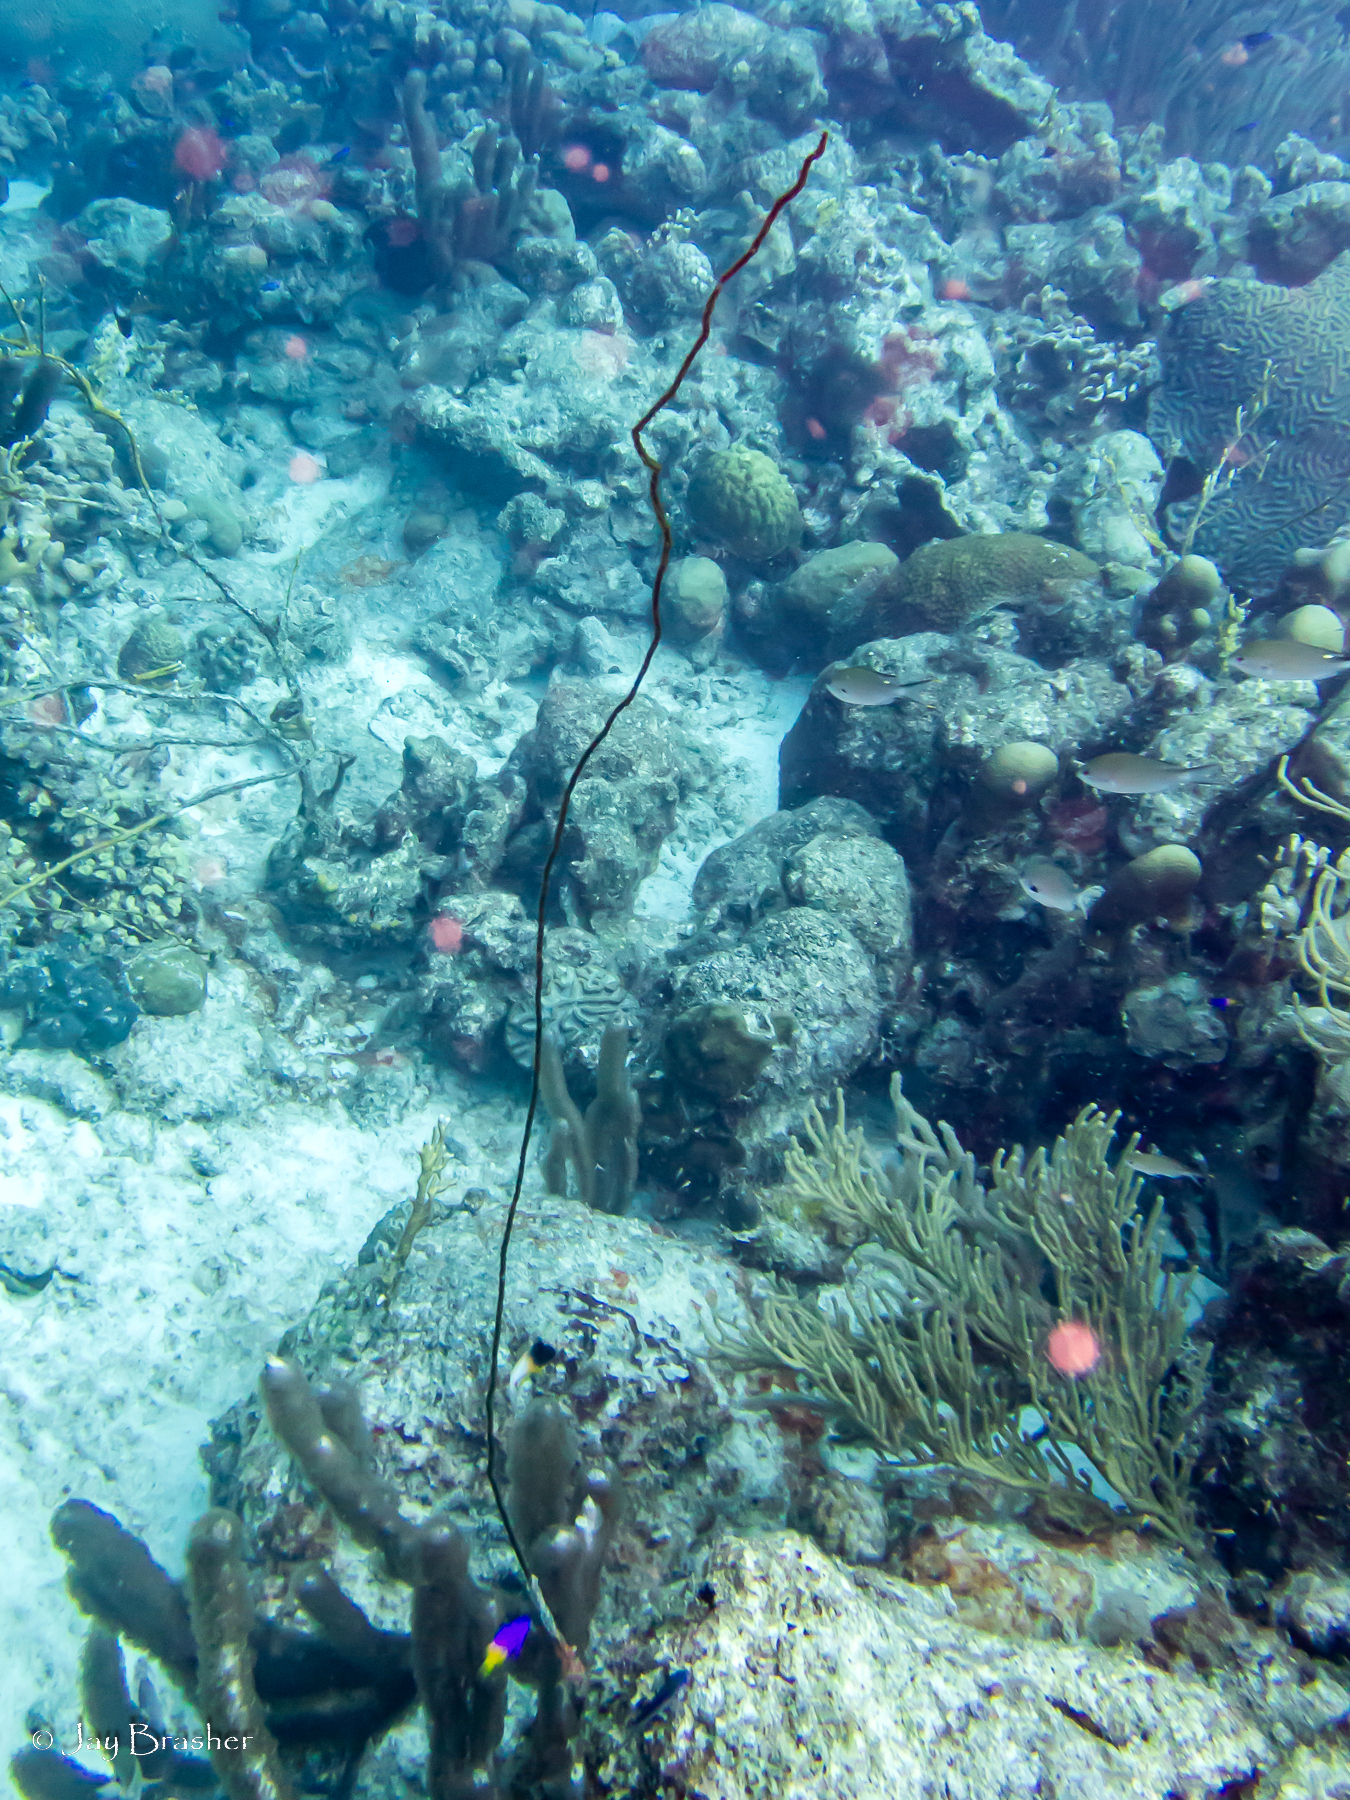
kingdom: Animalia
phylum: Cnidaria
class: Anthozoa
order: Antipatharia
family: Antipathidae
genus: Stichopathes
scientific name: Stichopathes luetkeni
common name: Black wire coral
